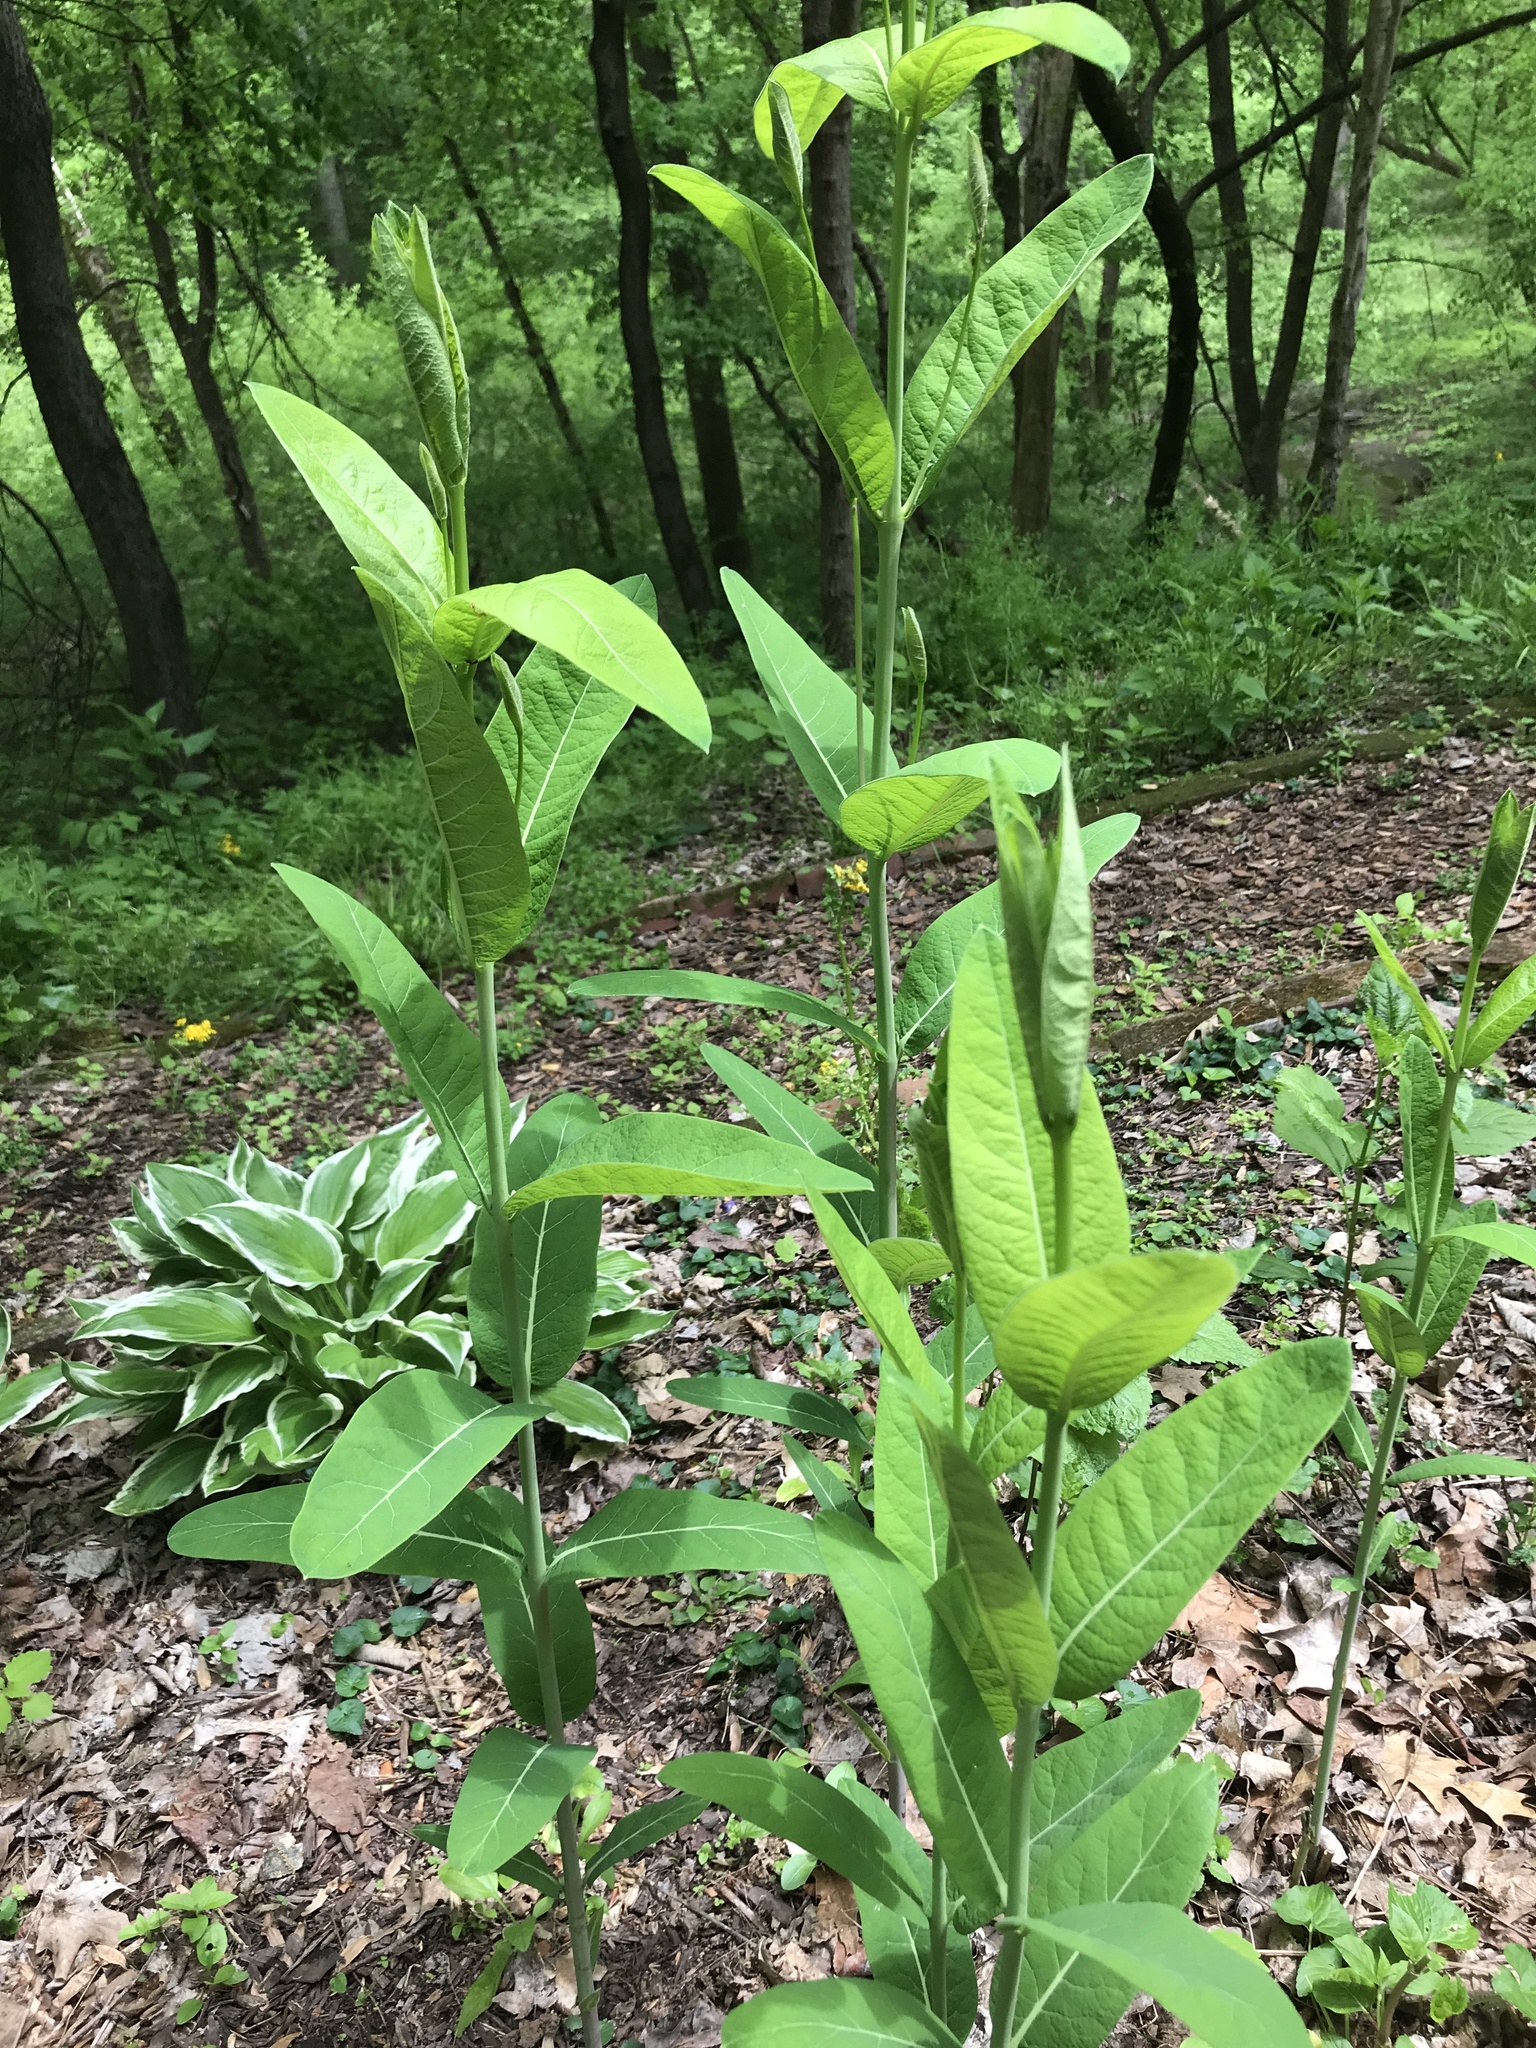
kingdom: Plantae
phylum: Tracheophyta
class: Magnoliopsida
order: Gentianales
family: Apocynaceae
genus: Apocynum
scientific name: Apocynum cannabinum
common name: Hemp dogbane
